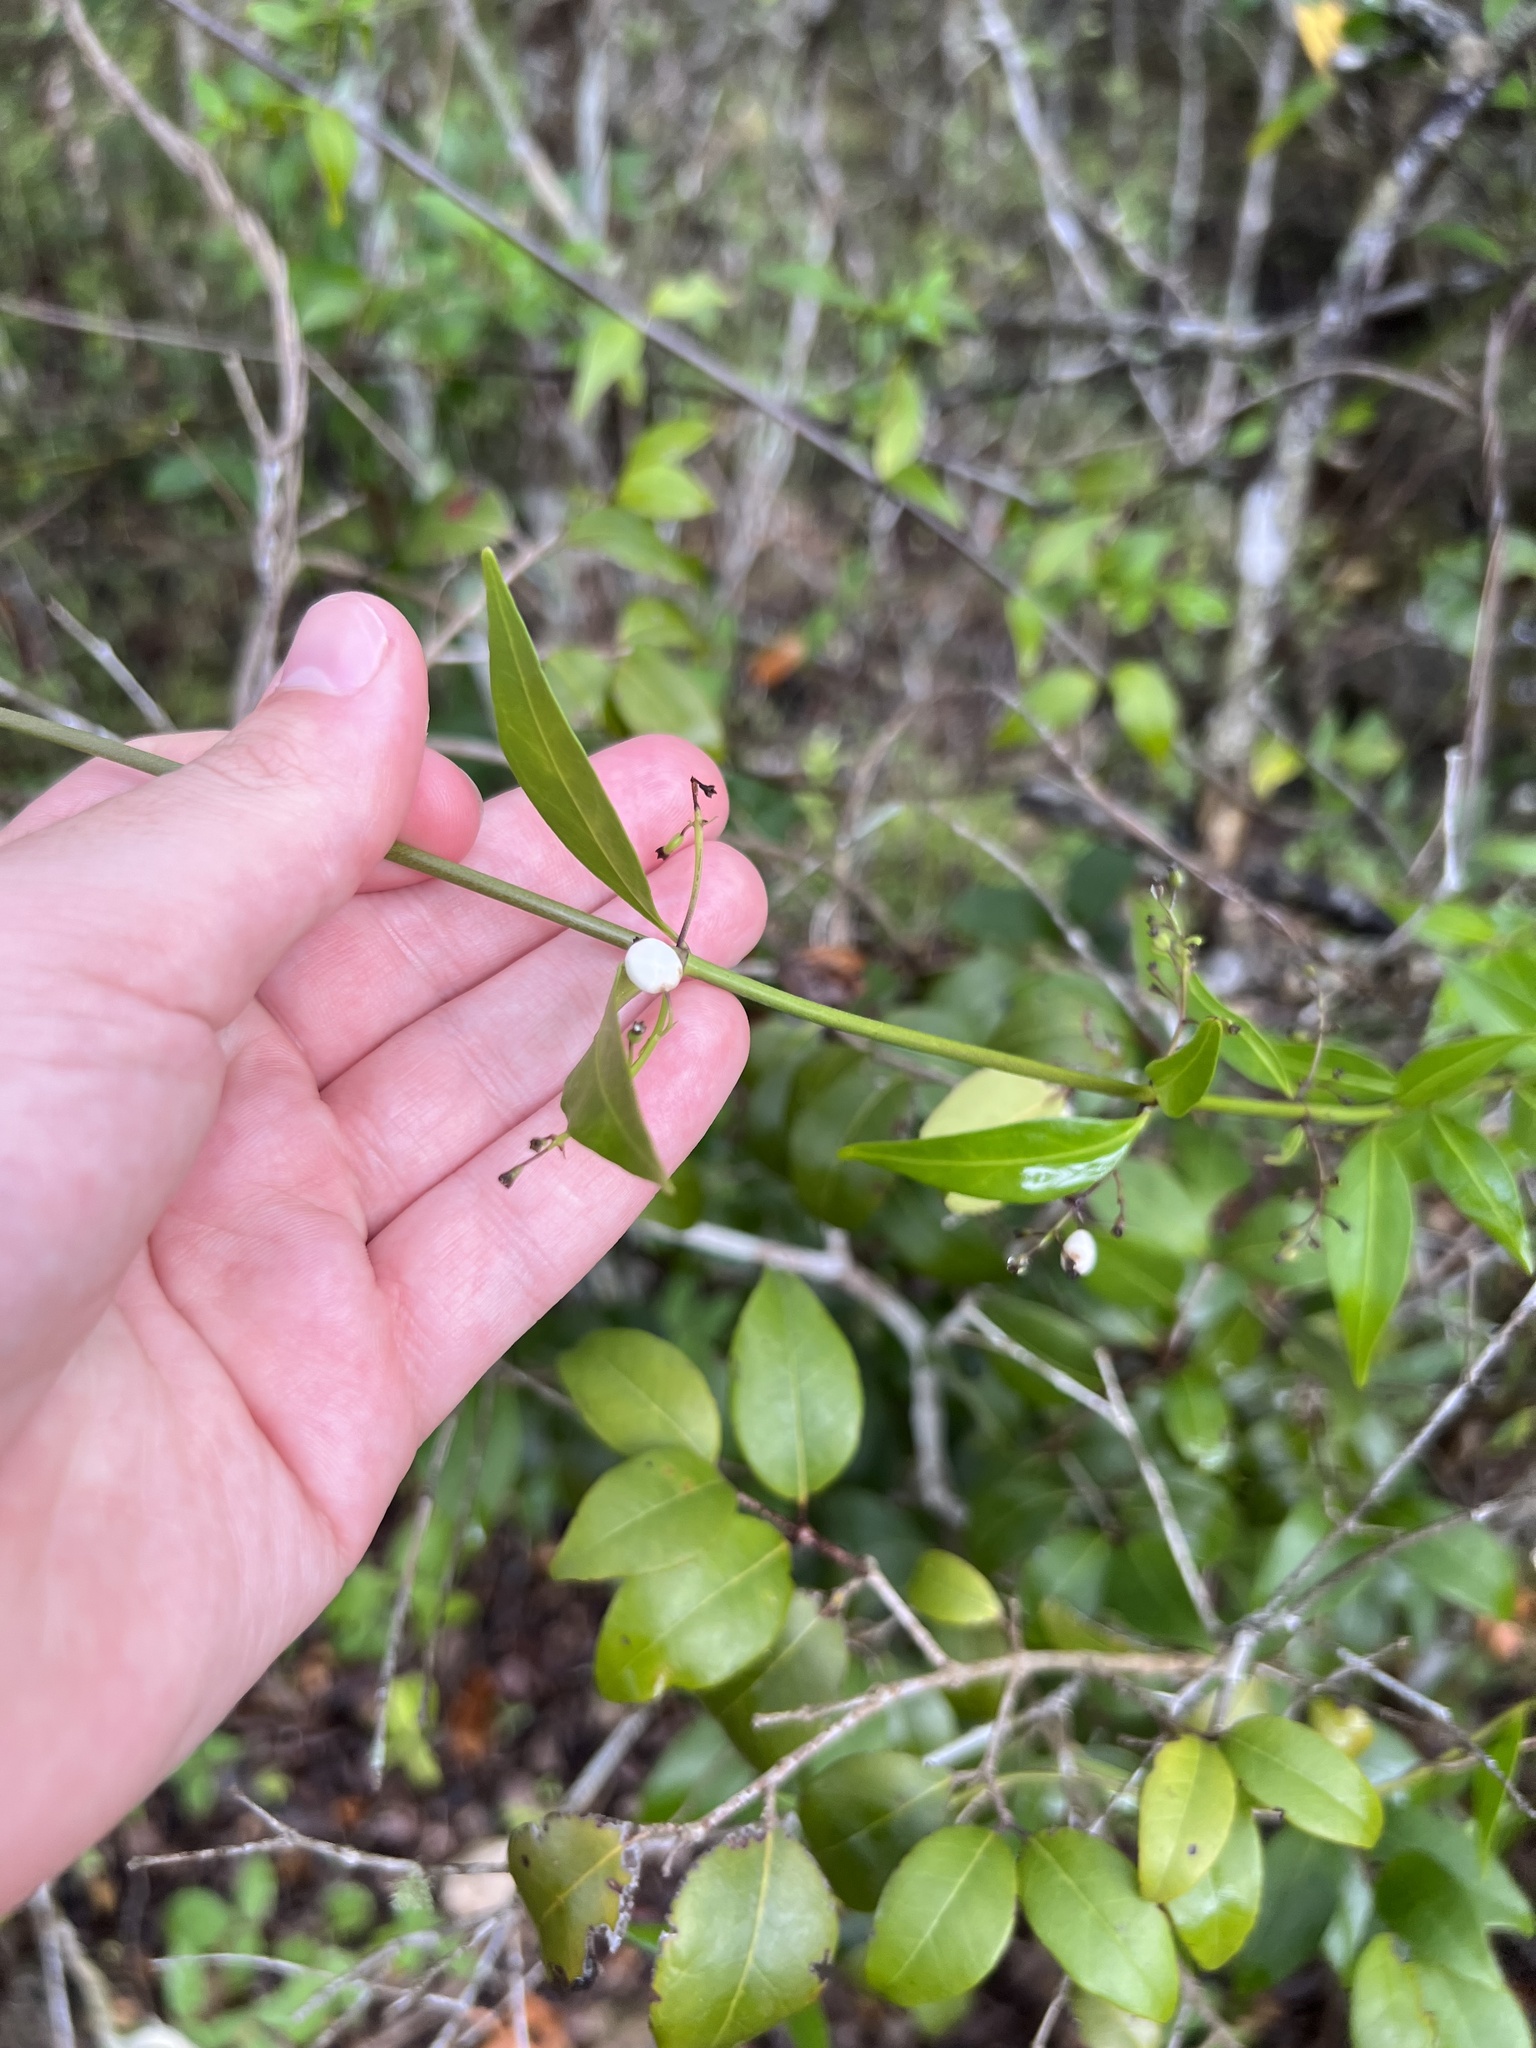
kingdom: Plantae
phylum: Tracheophyta
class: Magnoliopsida
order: Gentianales
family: Rubiaceae
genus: Chiococca
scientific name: Chiococca alba
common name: Snowberry
